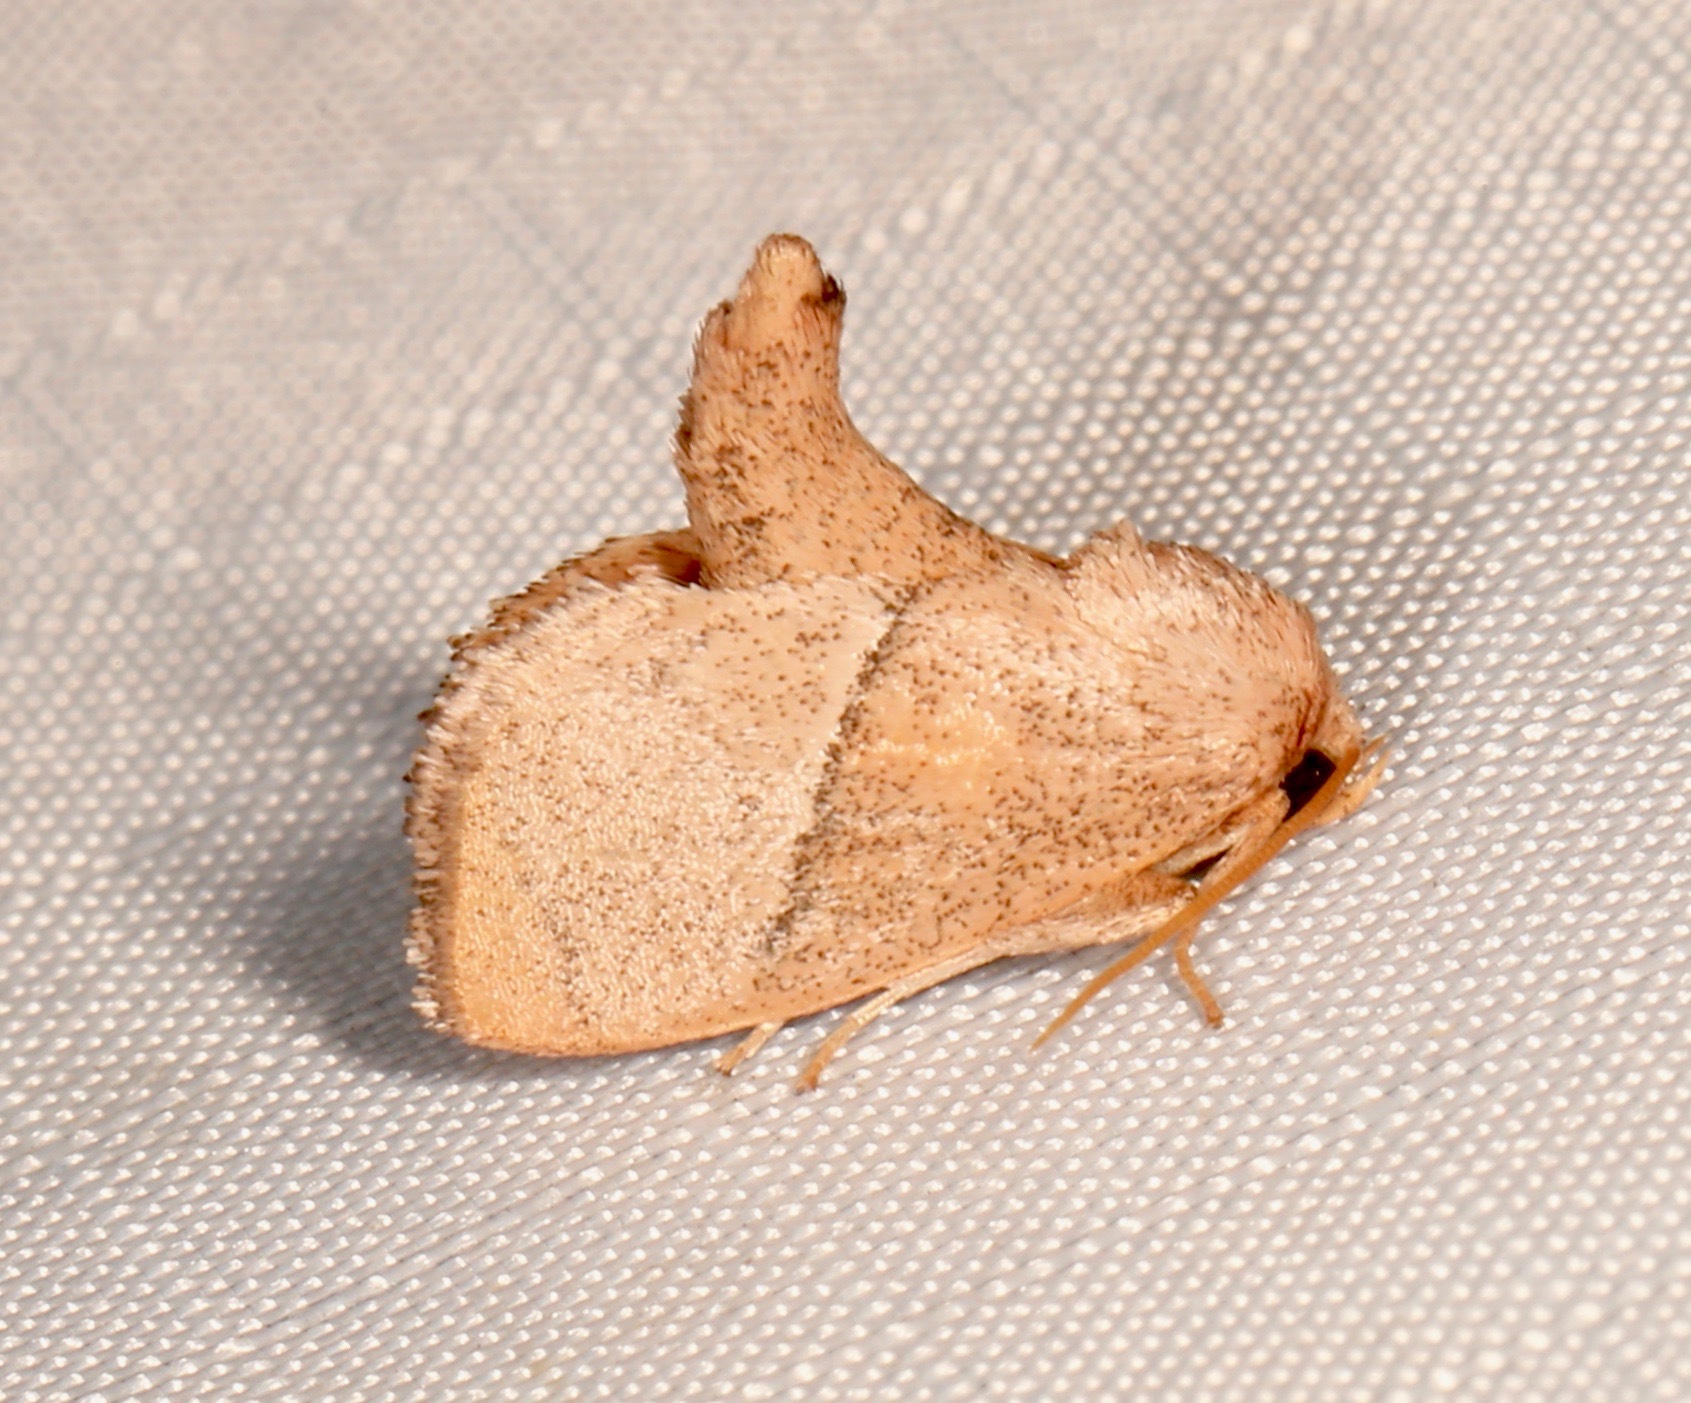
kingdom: Animalia
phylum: Arthropoda
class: Insecta
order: Lepidoptera
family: Limacodidae
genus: Apoda
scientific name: Apoda rectilinea
